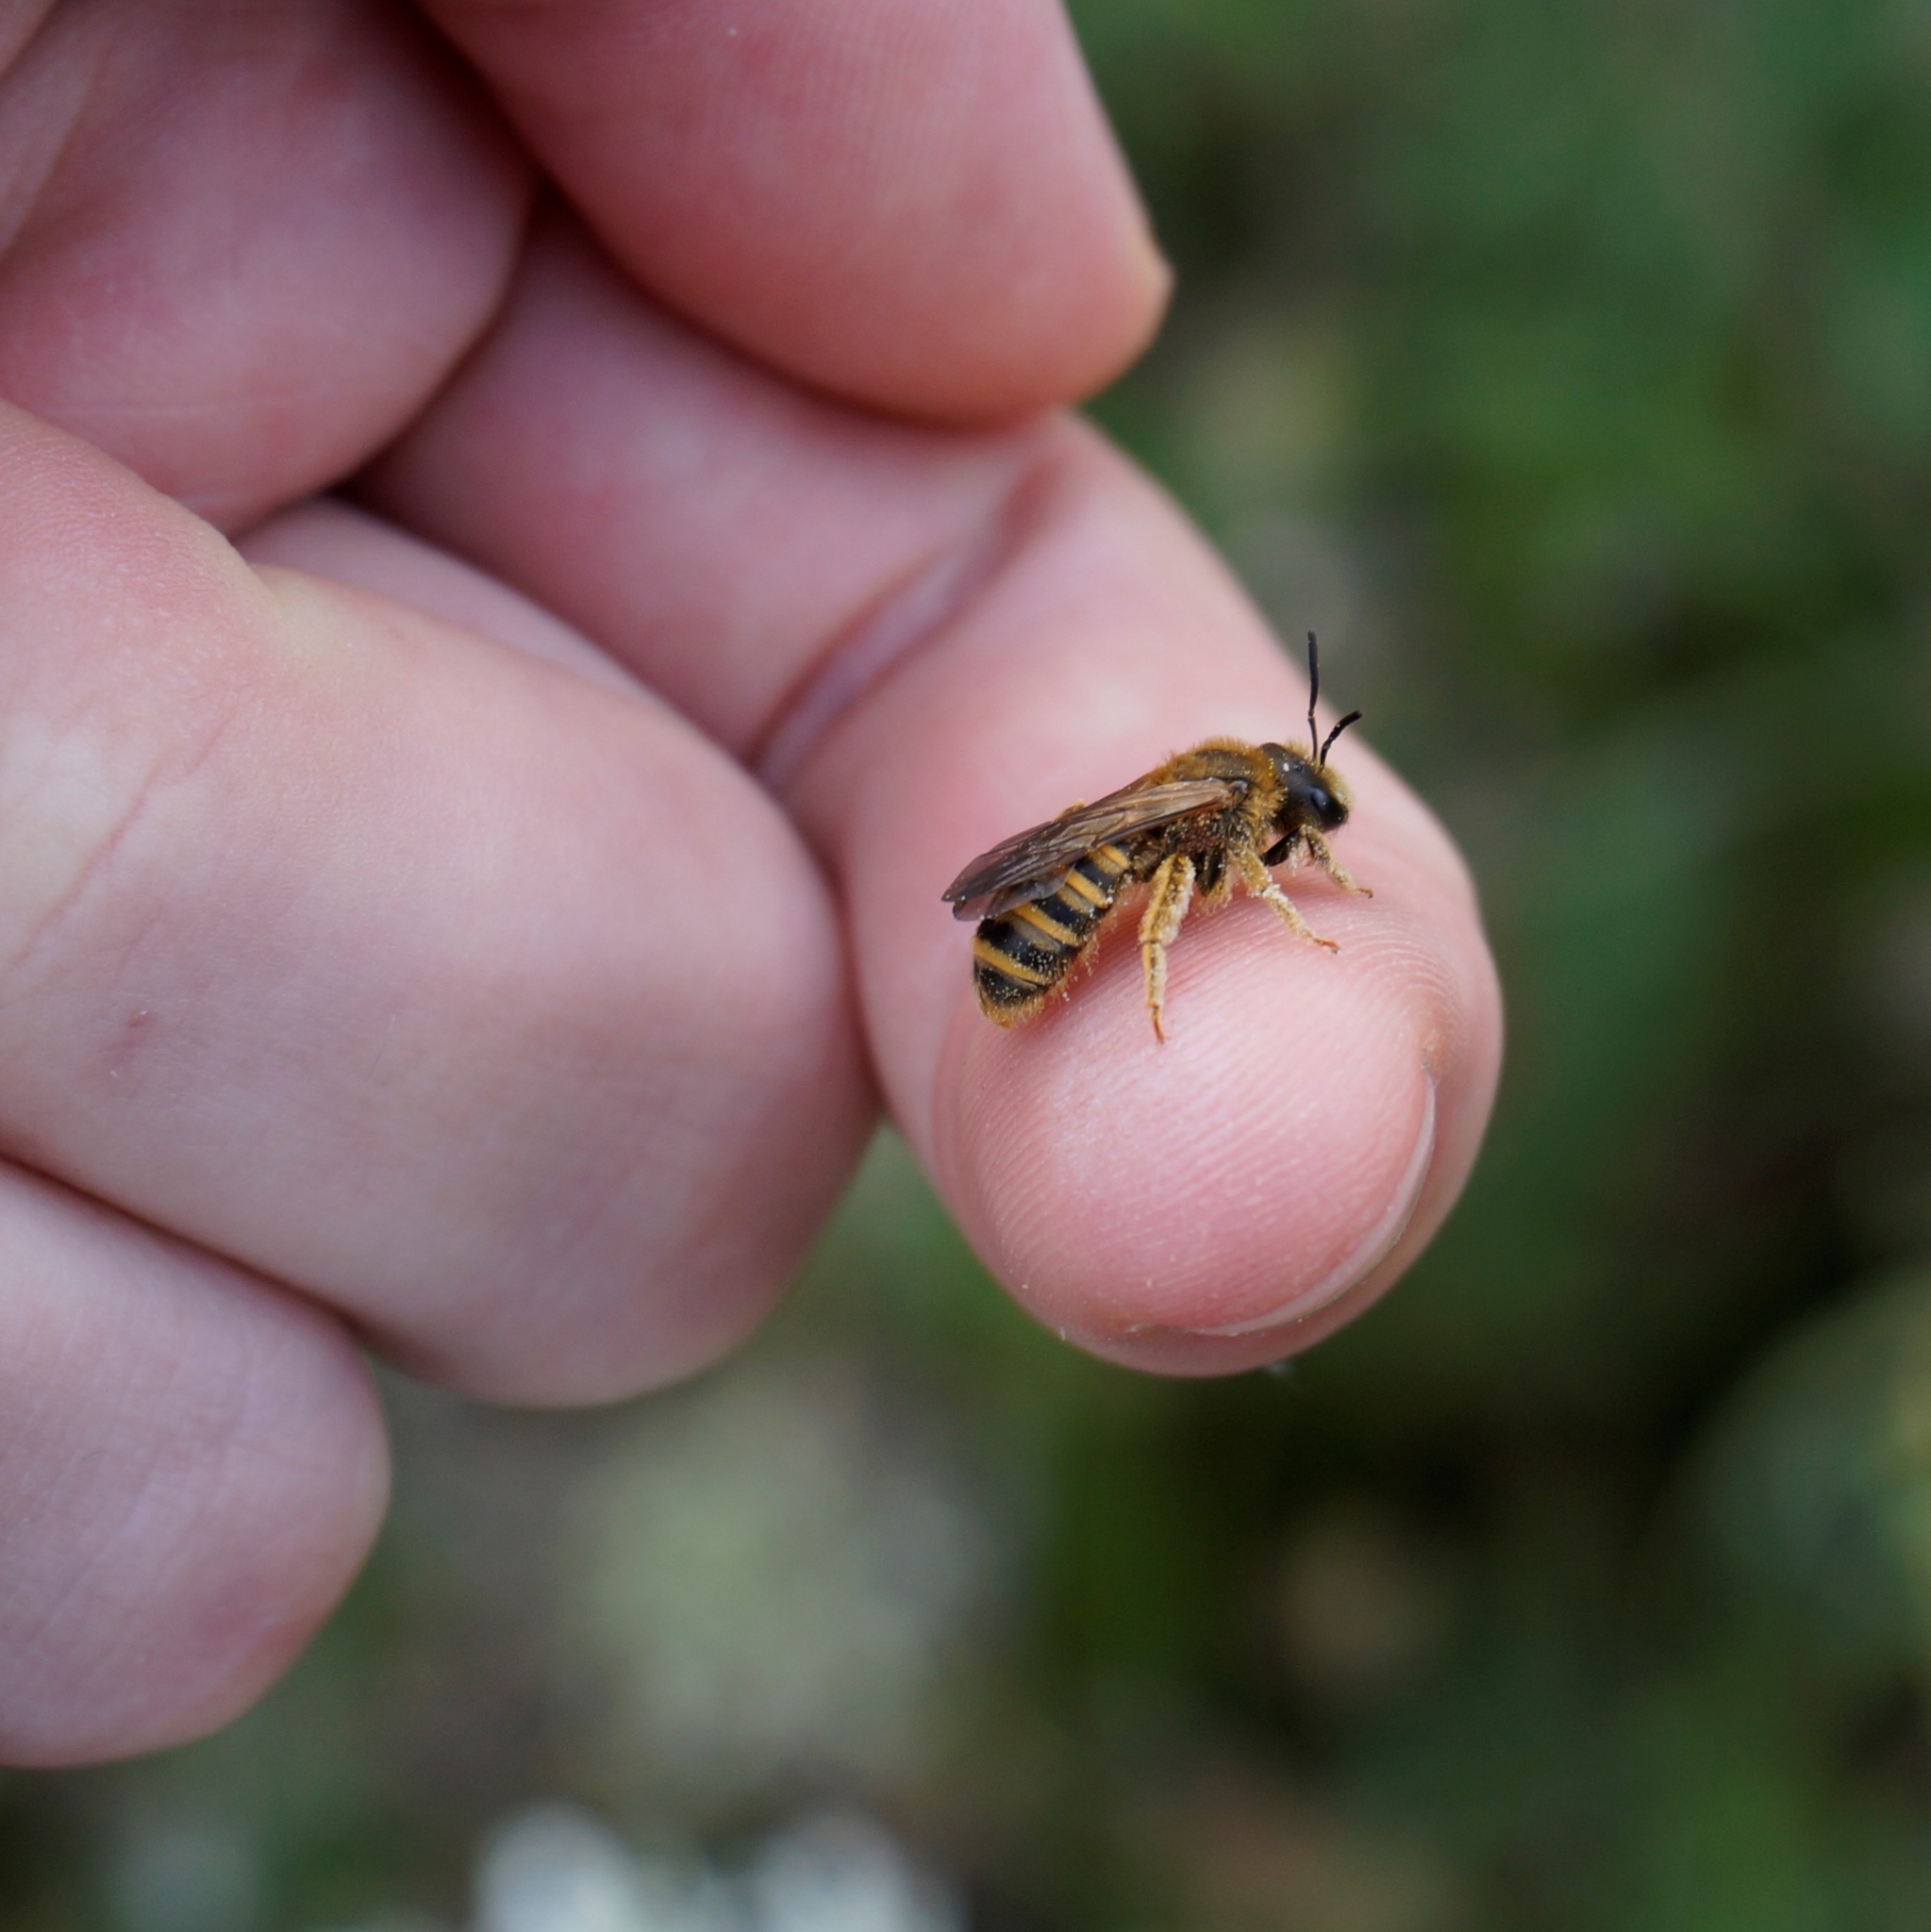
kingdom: Animalia
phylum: Arthropoda
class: Insecta
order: Hymenoptera
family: Halictidae
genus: Halictus
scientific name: Halictus scabiosae
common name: Great banded furrow bee
